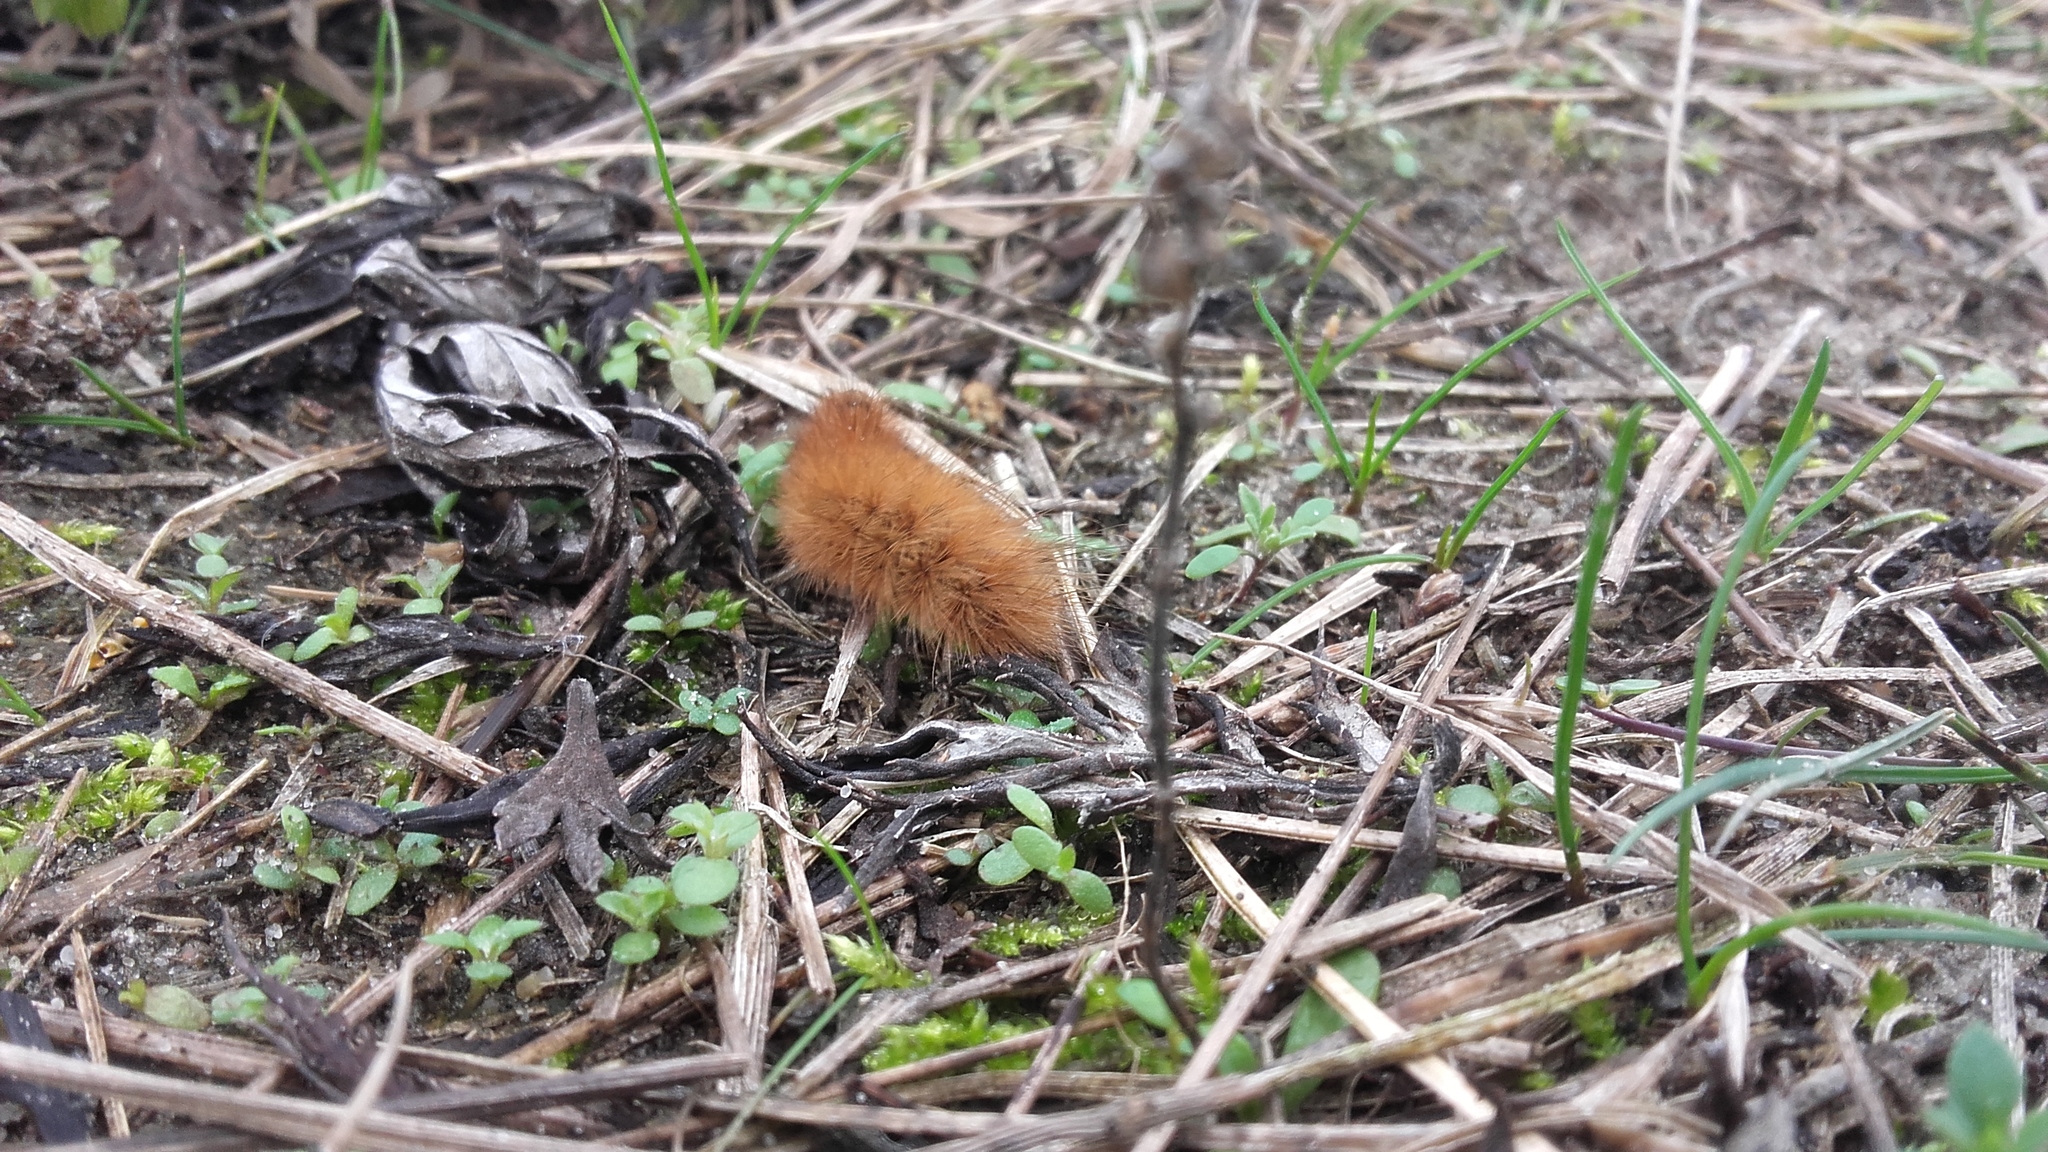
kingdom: Animalia
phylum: Arthropoda
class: Insecta
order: Lepidoptera
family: Erebidae
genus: Phragmatobia
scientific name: Phragmatobia fuliginosa
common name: Ruby tiger
